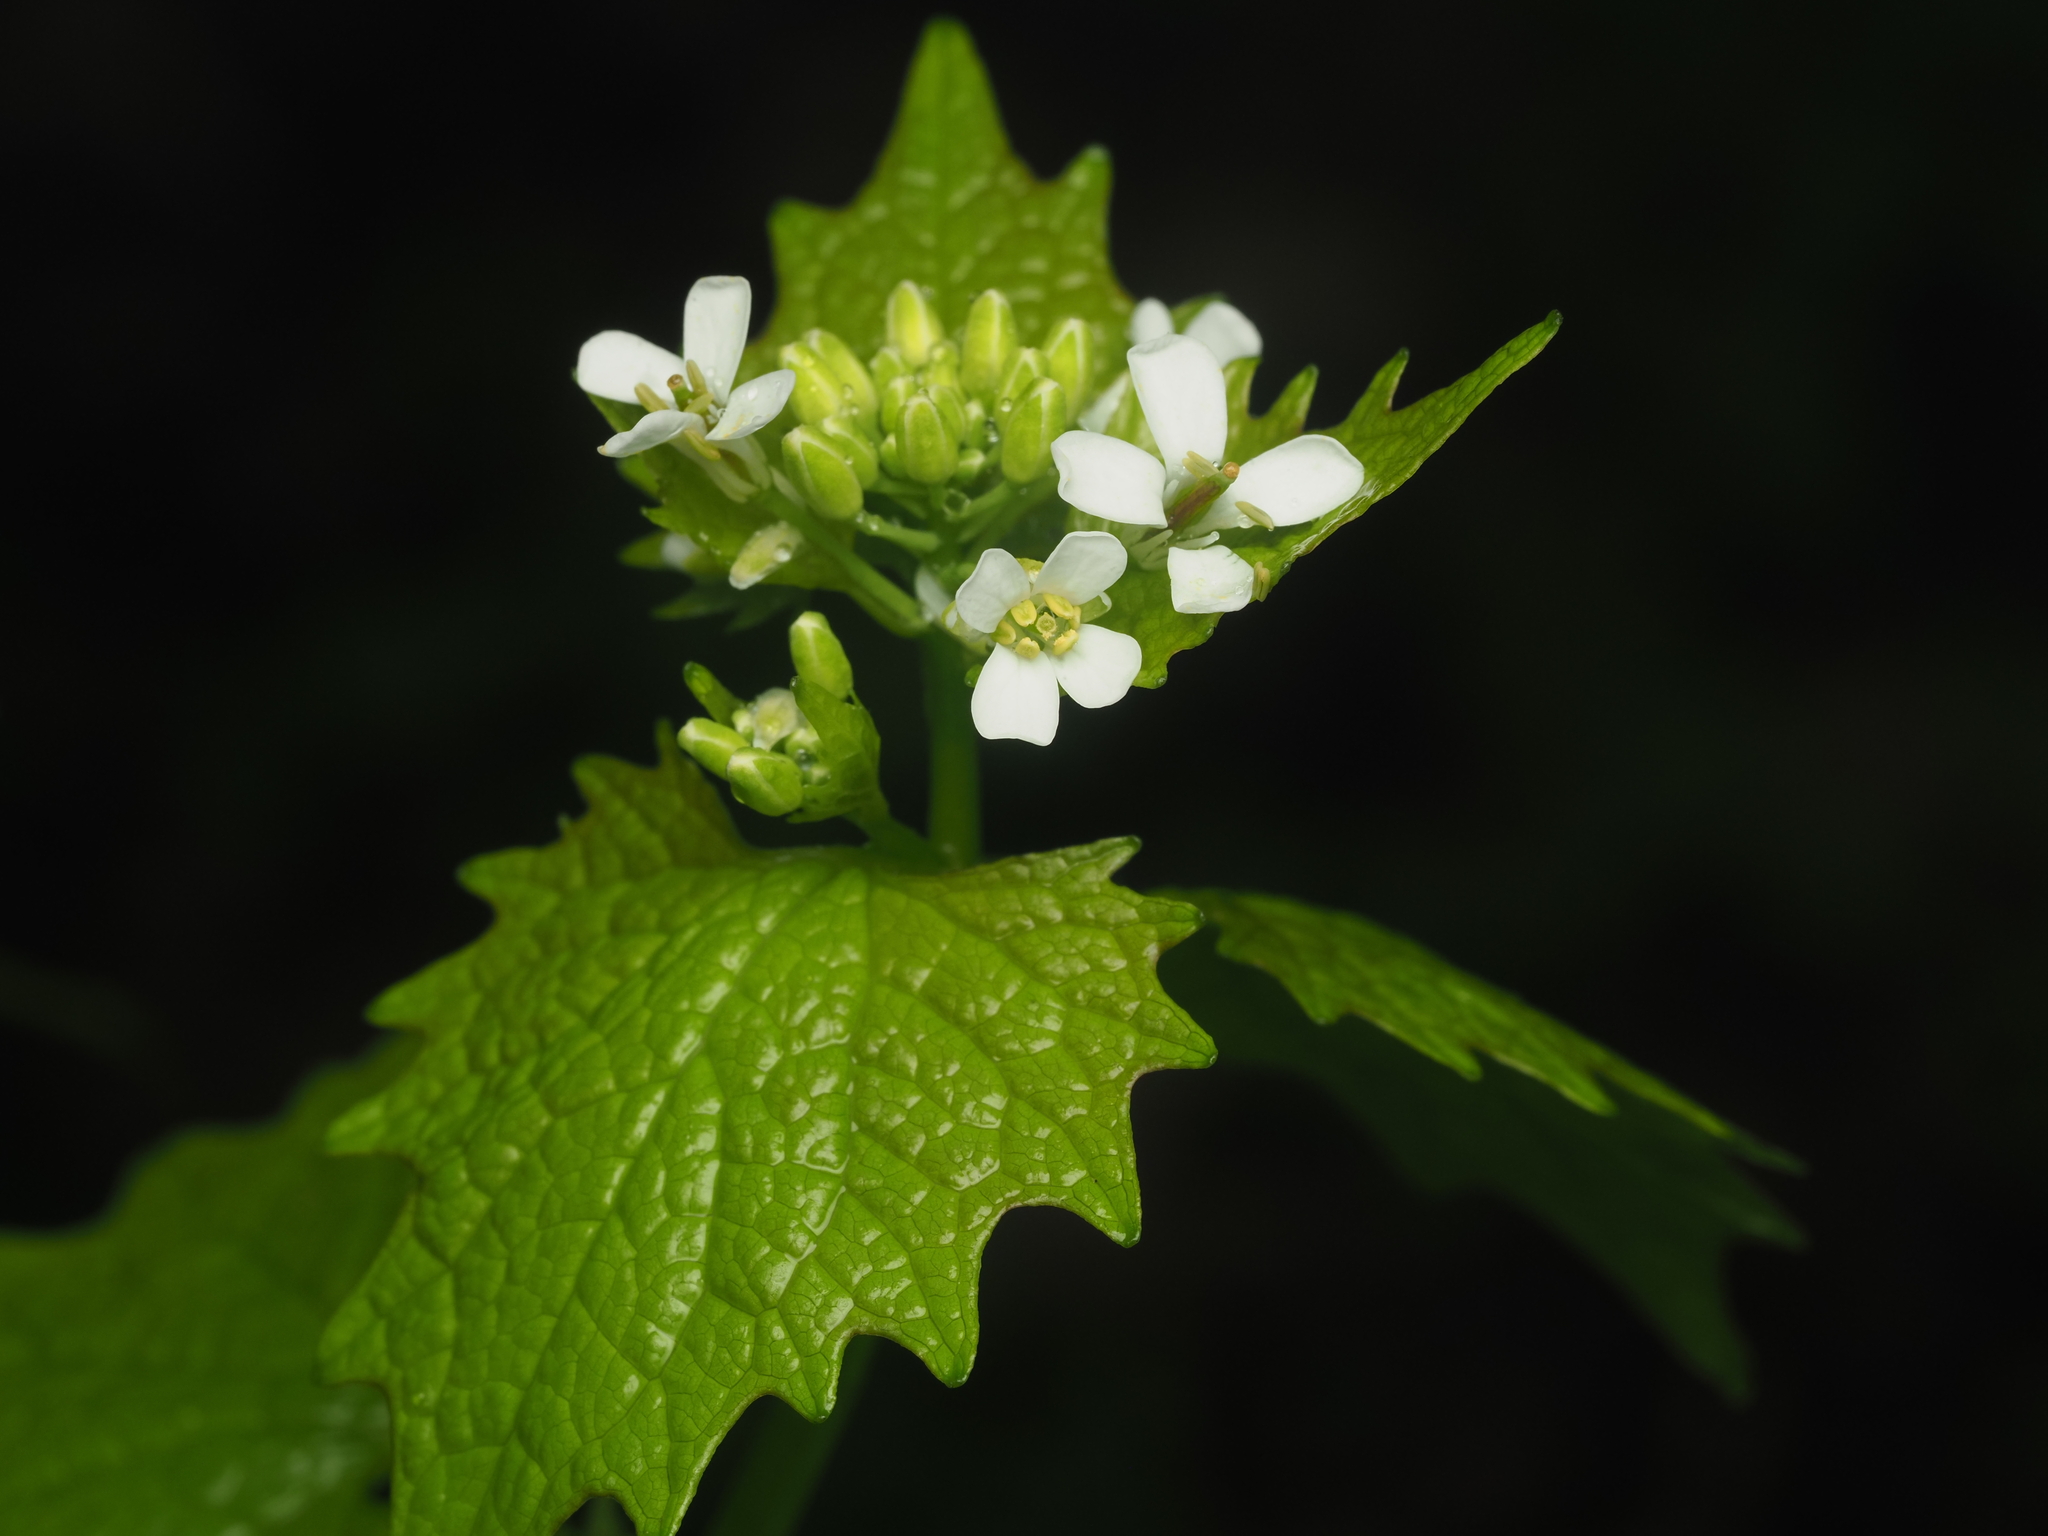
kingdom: Plantae
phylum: Tracheophyta
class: Magnoliopsida
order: Brassicales
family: Brassicaceae
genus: Alliaria
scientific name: Alliaria petiolata
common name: Garlic mustard
